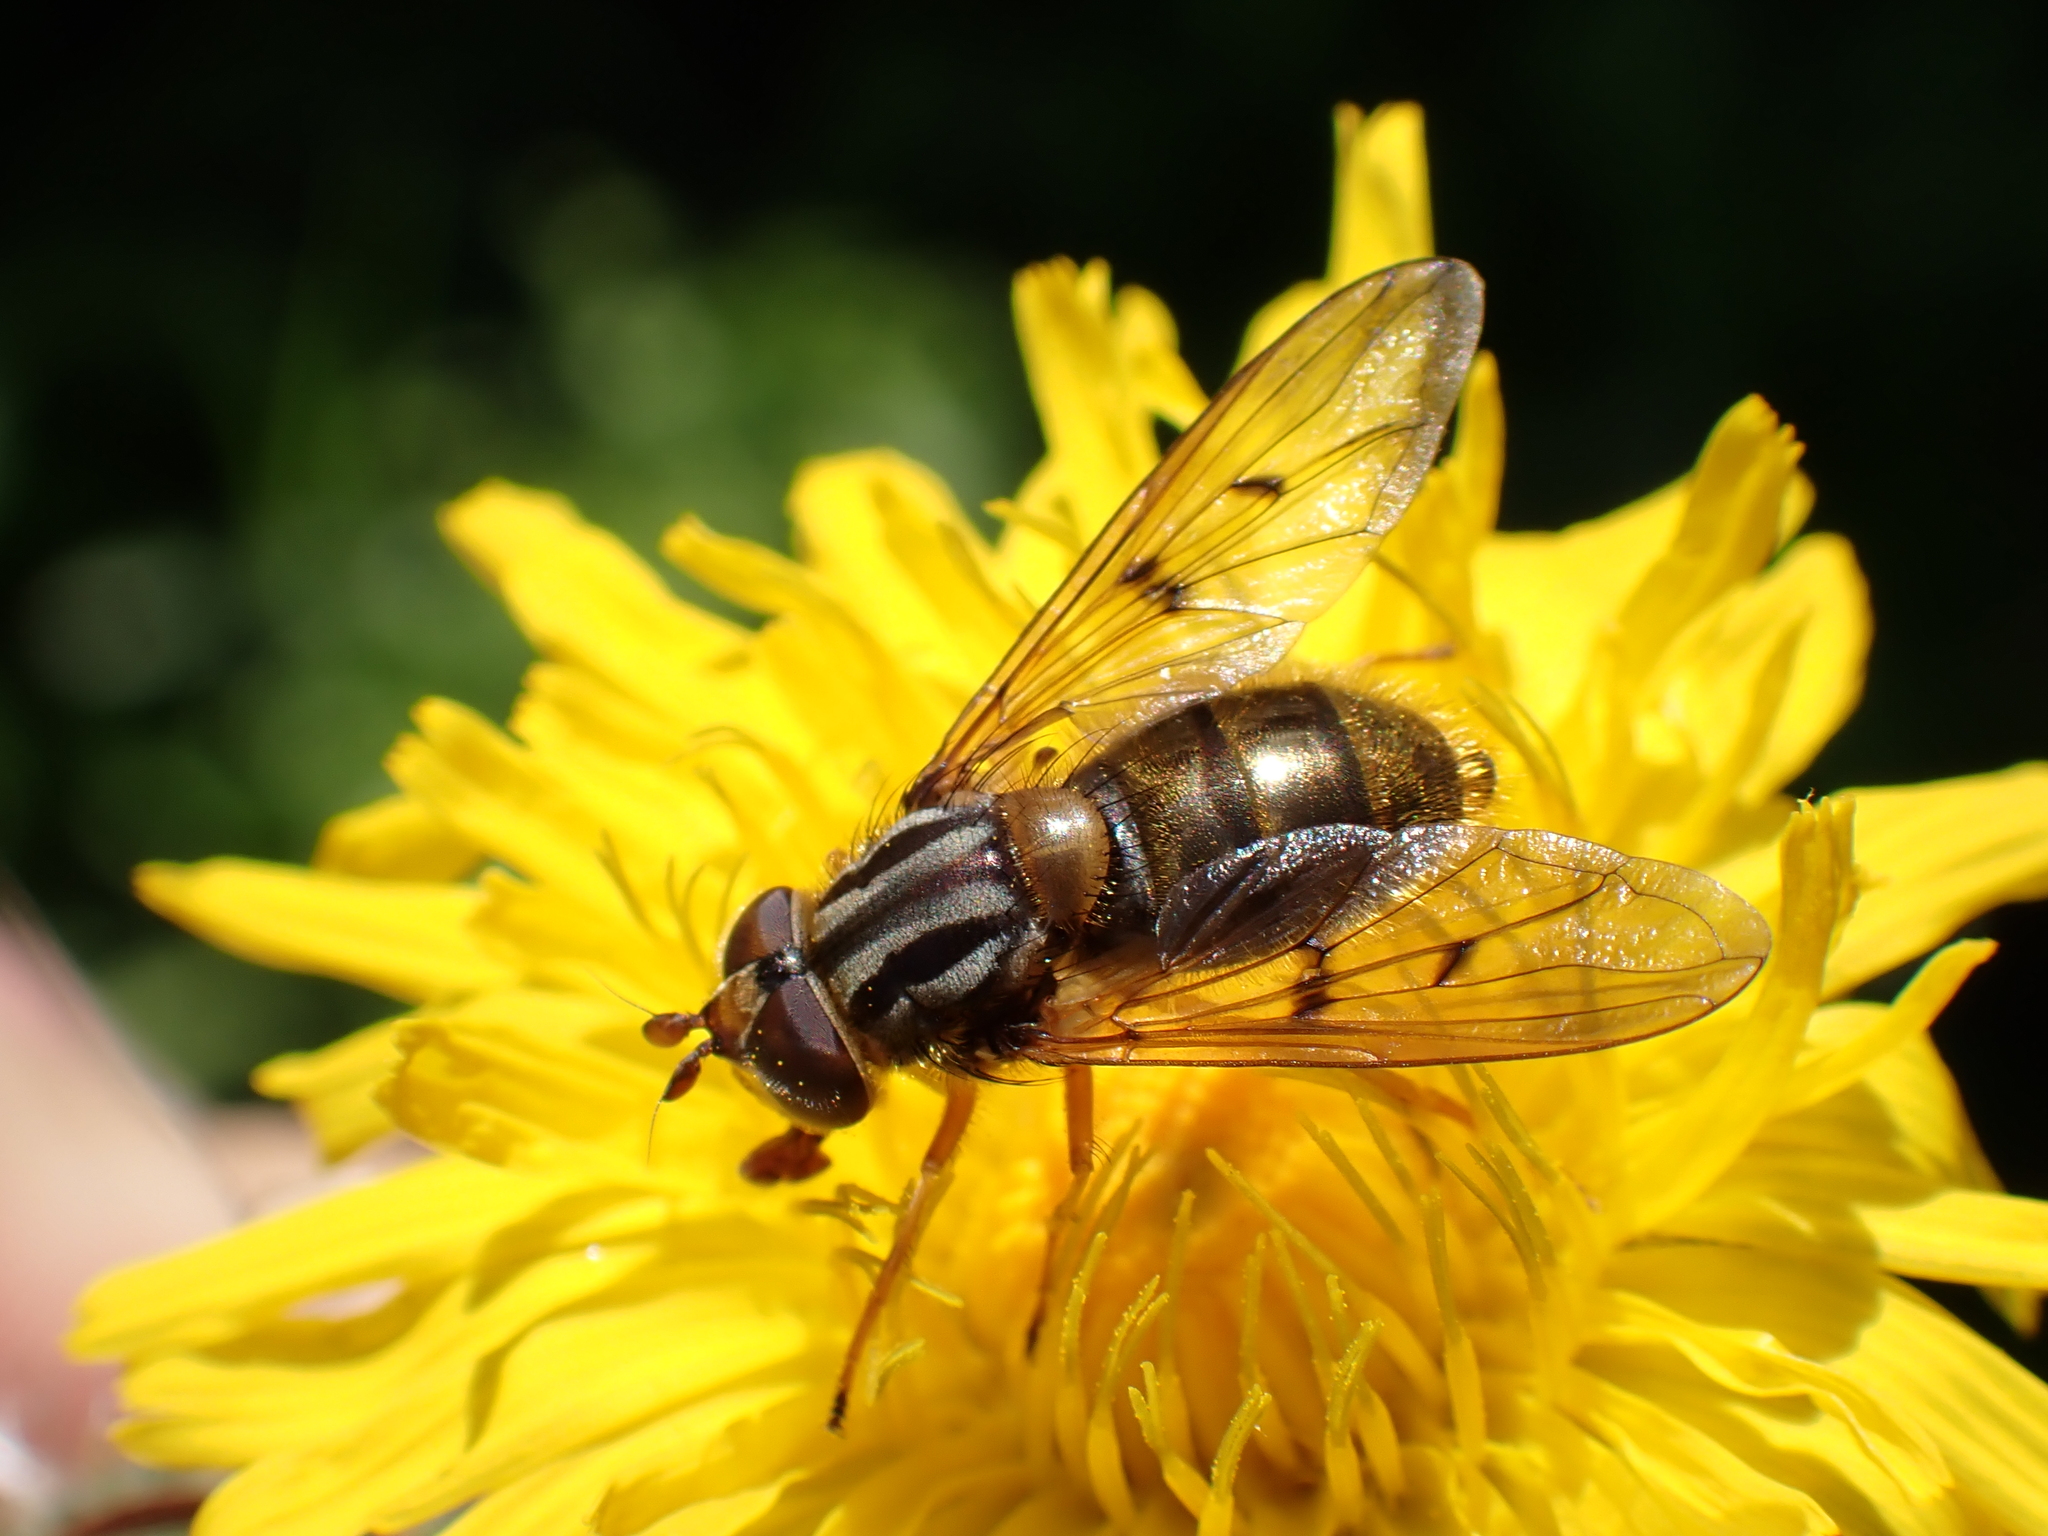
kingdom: Animalia
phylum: Arthropoda
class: Insecta
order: Diptera
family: Syrphidae
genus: Ferdinandea
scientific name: Ferdinandea cuprea
